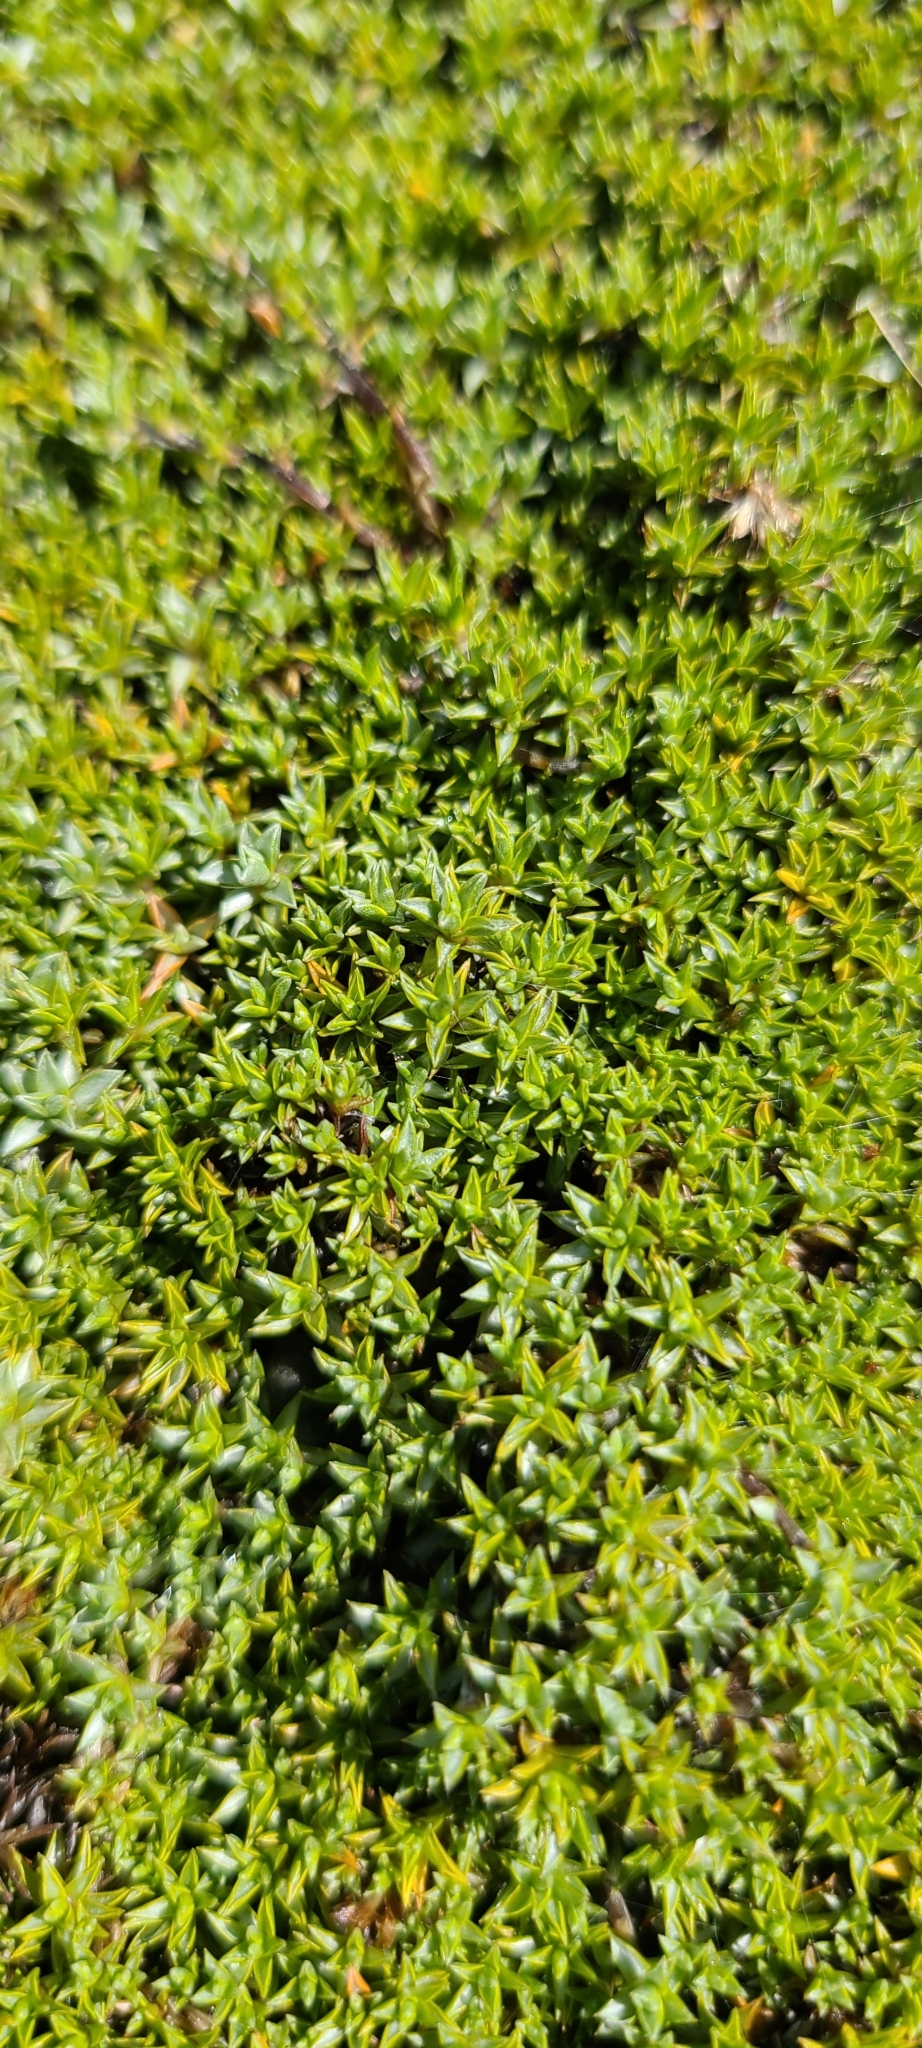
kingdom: Plantae
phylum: Tracheophyta
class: Magnoliopsida
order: Asterales
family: Asteraceae
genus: Raoulia
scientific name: Raoulia tenuicaulis
